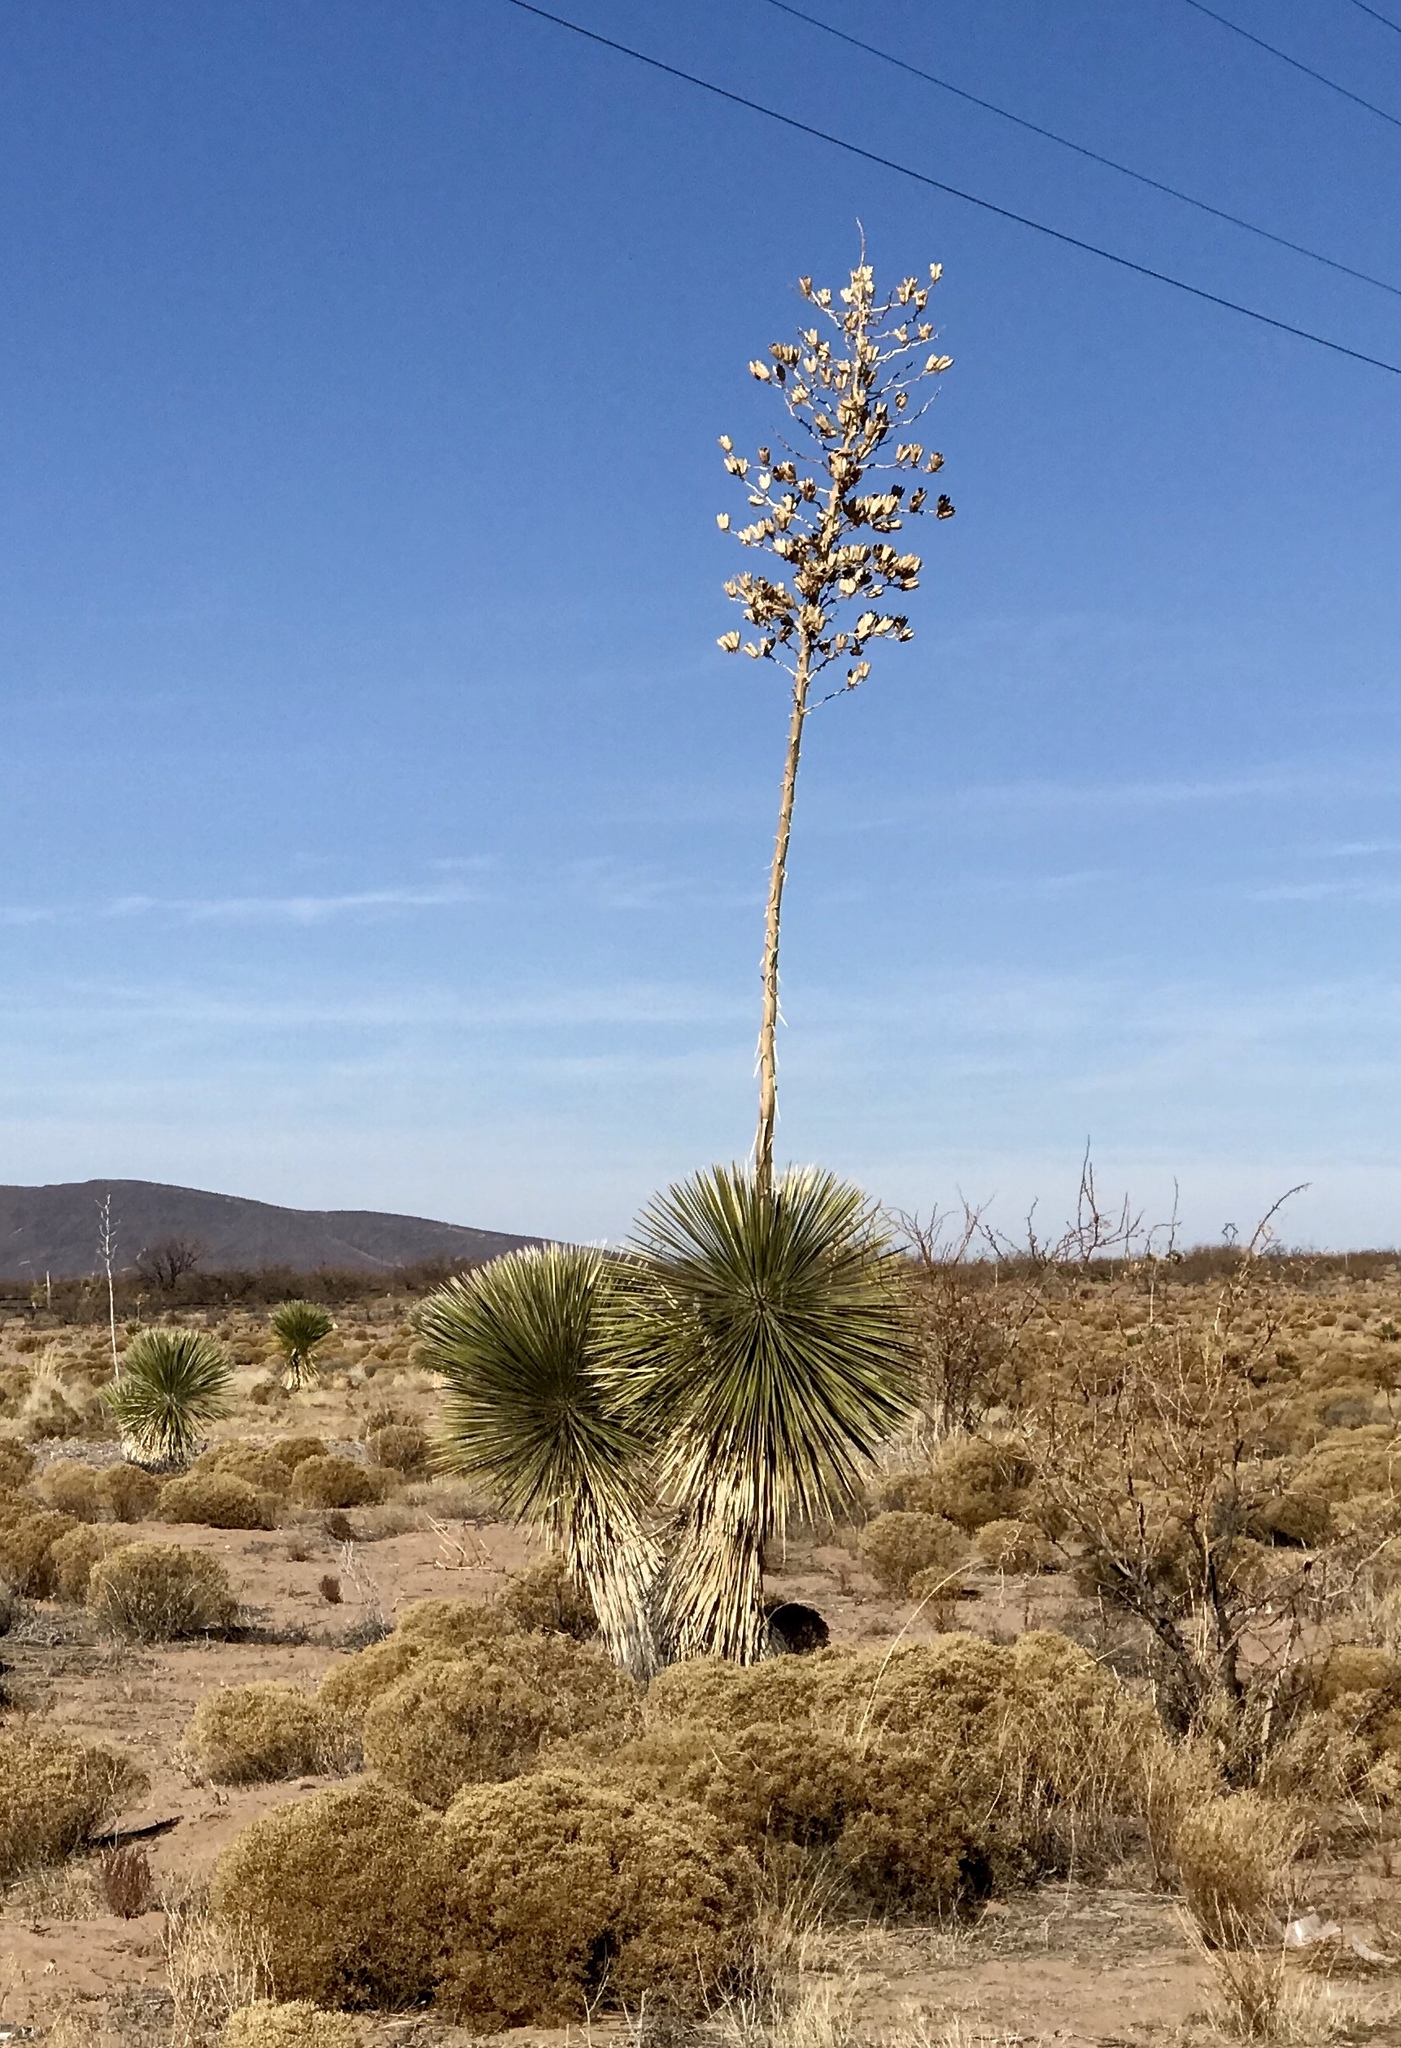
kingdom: Plantae
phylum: Tracheophyta
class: Liliopsida
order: Asparagales
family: Asparagaceae
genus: Yucca
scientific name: Yucca elata
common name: Palmella
